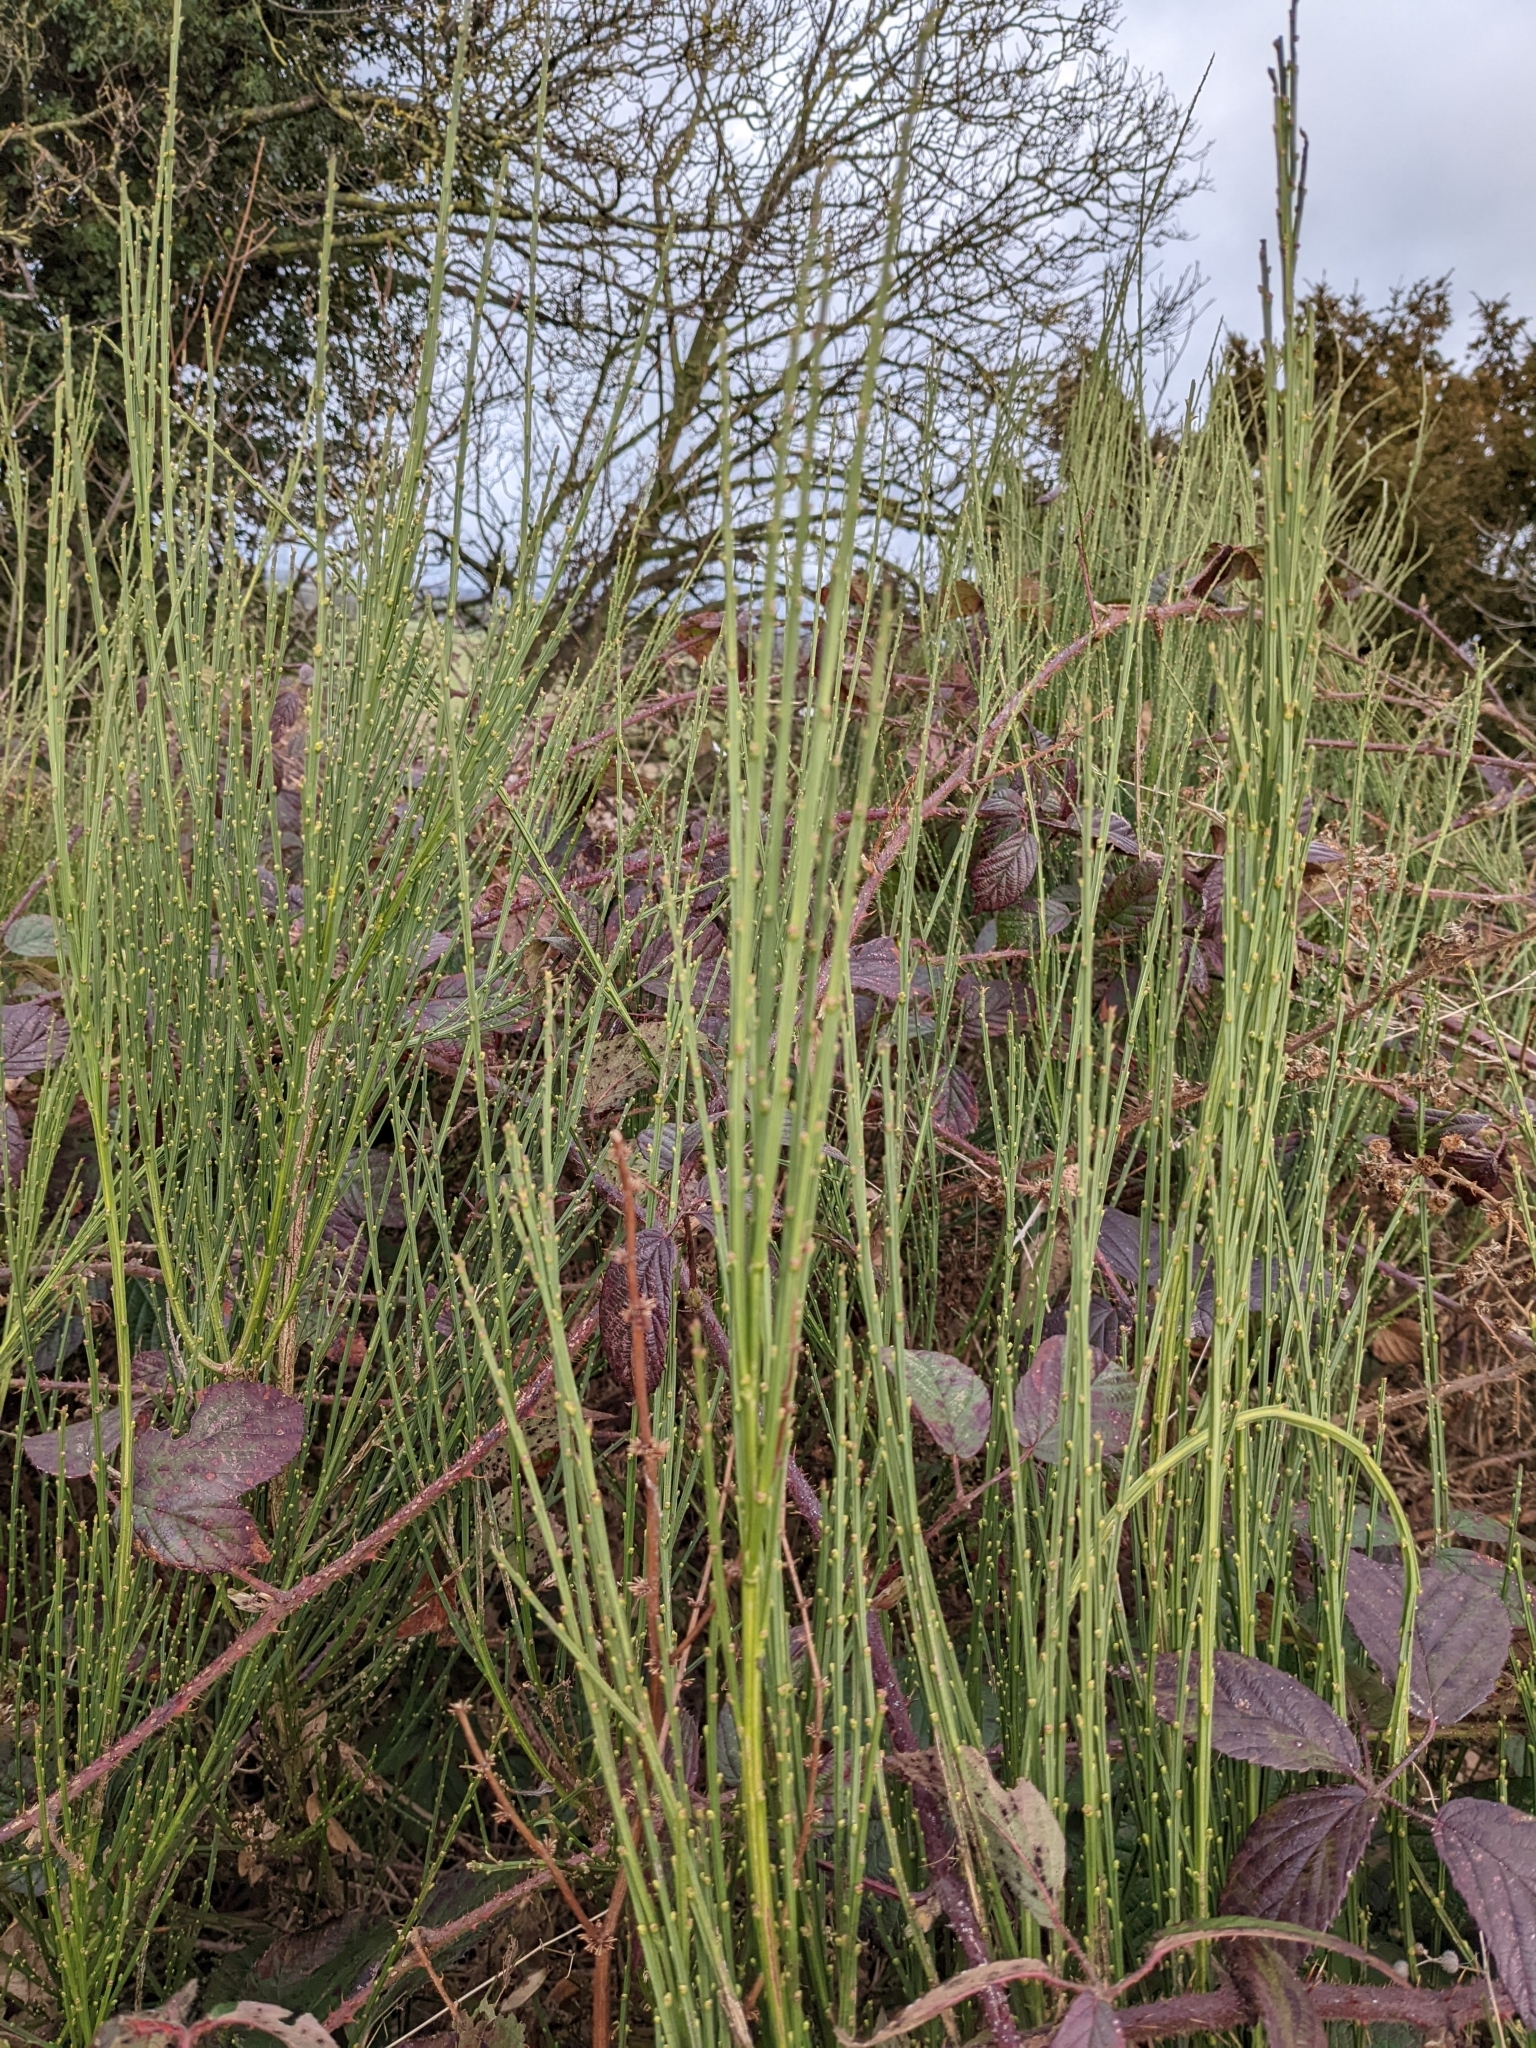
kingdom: Plantae
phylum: Tracheophyta
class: Magnoliopsida
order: Fabales
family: Fabaceae
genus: Cytisus
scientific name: Cytisus scoparius
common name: Scotch broom
